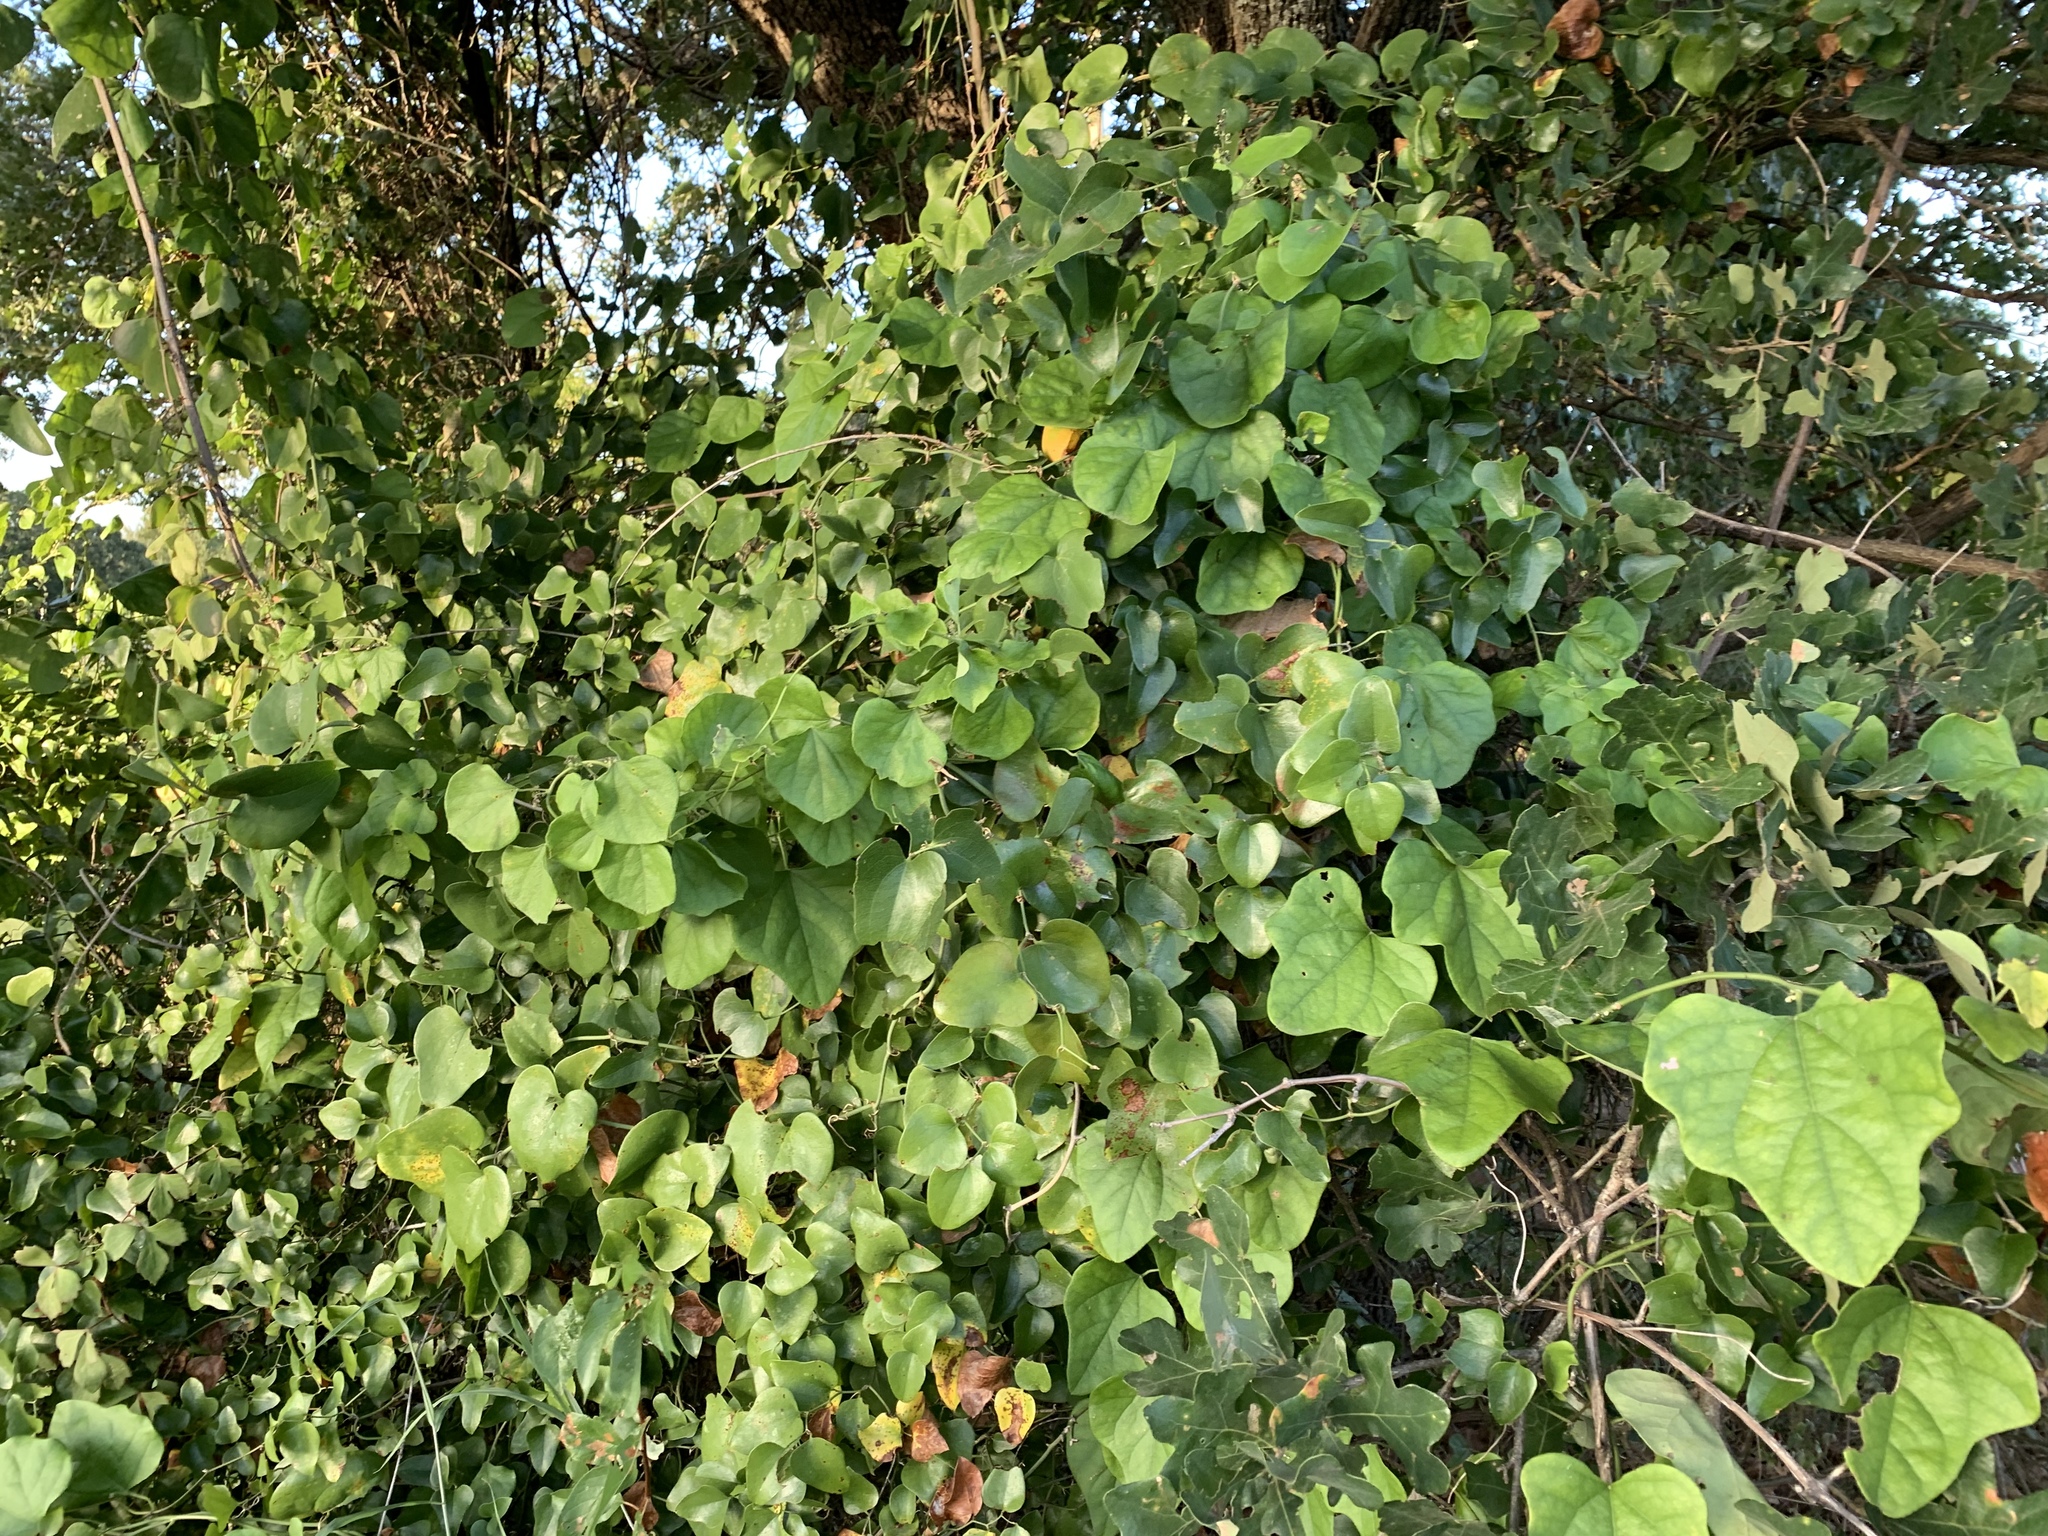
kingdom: Plantae
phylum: Tracheophyta
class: Magnoliopsida
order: Ranunculales
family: Menispermaceae
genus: Cocculus
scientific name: Cocculus carolinus
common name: Carolina moonseed
